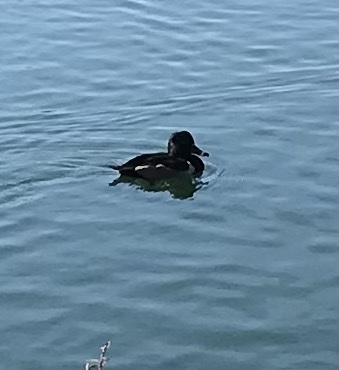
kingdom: Animalia
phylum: Chordata
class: Aves
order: Anseriformes
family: Anatidae
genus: Aythya
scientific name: Aythya collaris
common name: Ring-necked duck
